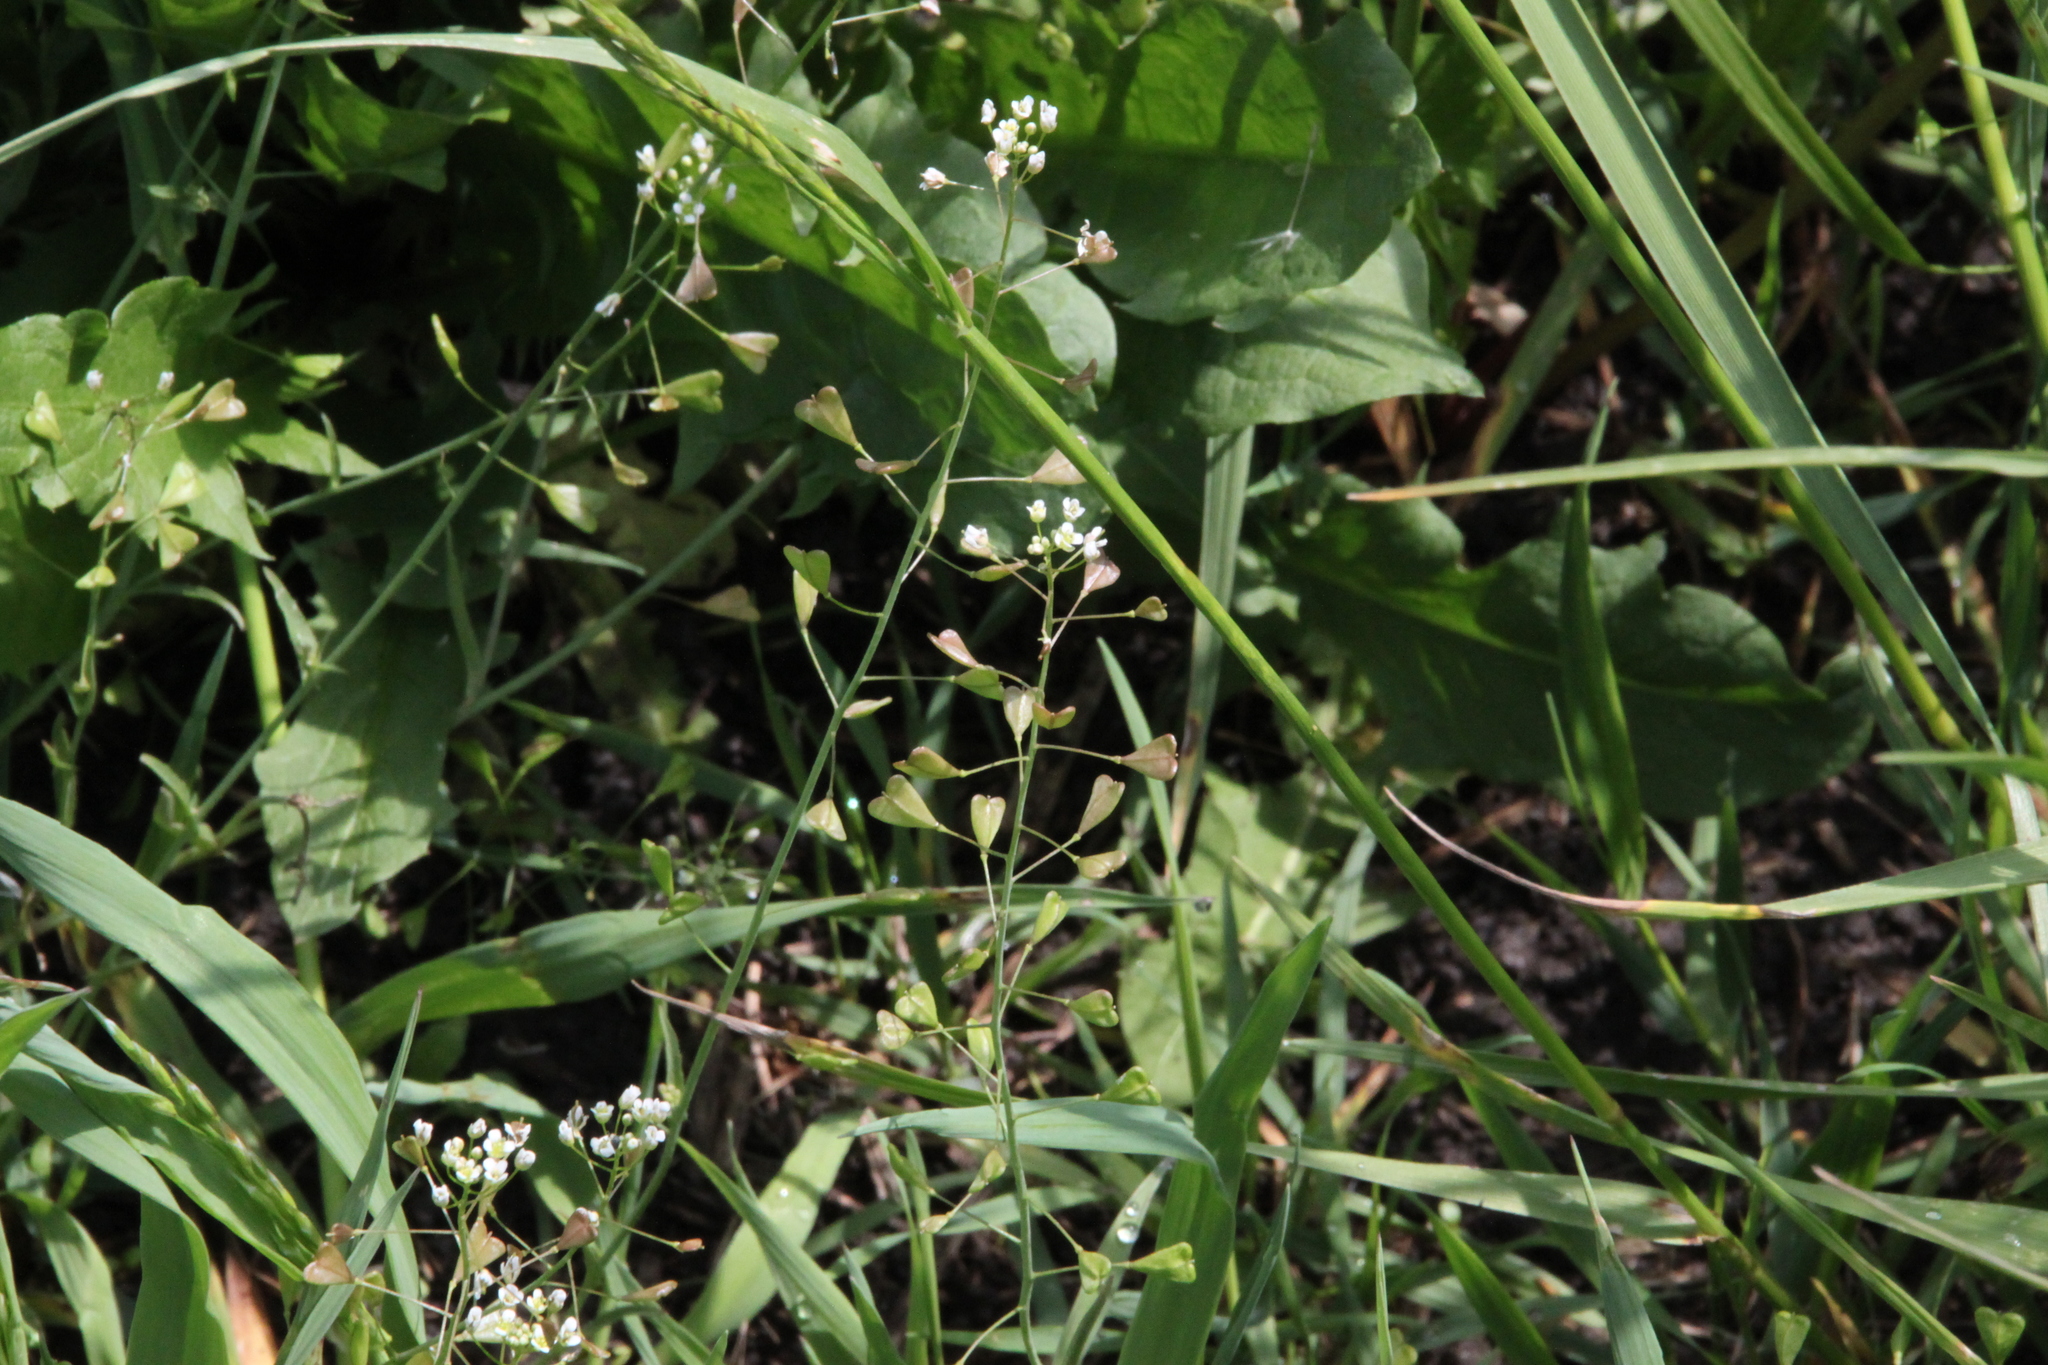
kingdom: Plantae
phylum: Tracheophyta
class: Magnoliopsida
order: Brassicales
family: Brassicaceae
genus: Capsella
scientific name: Capsella bursa-pastoris
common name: Shepherd's purse
